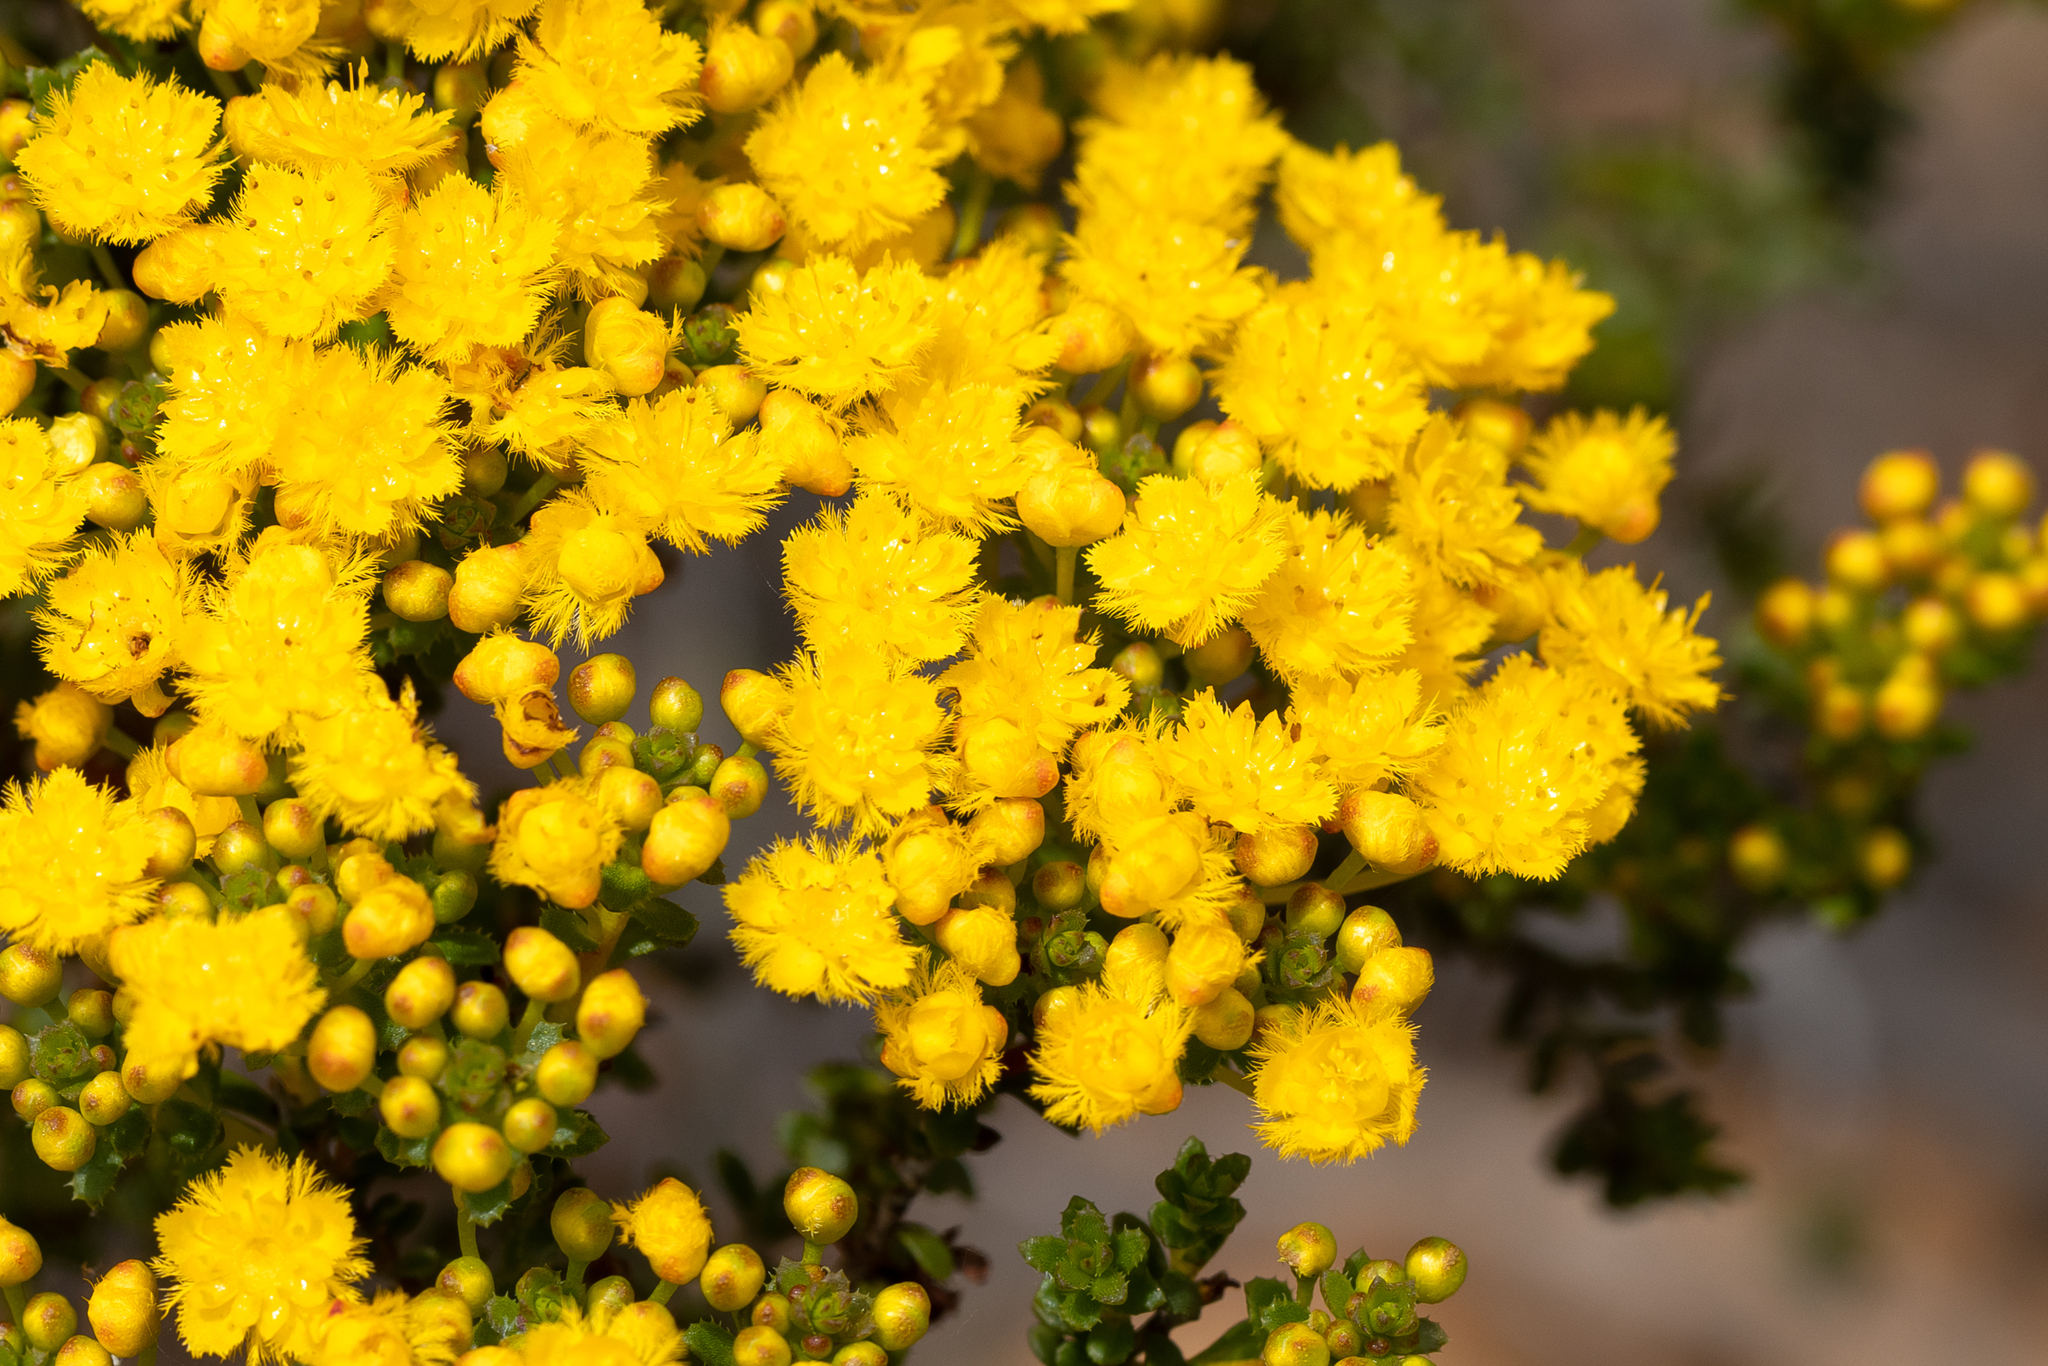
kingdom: Plantae
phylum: Tracheophyta
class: Magnoliopsida
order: Myrtales
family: Myrtaceae
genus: Verticordia
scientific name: Verticordia serrata
